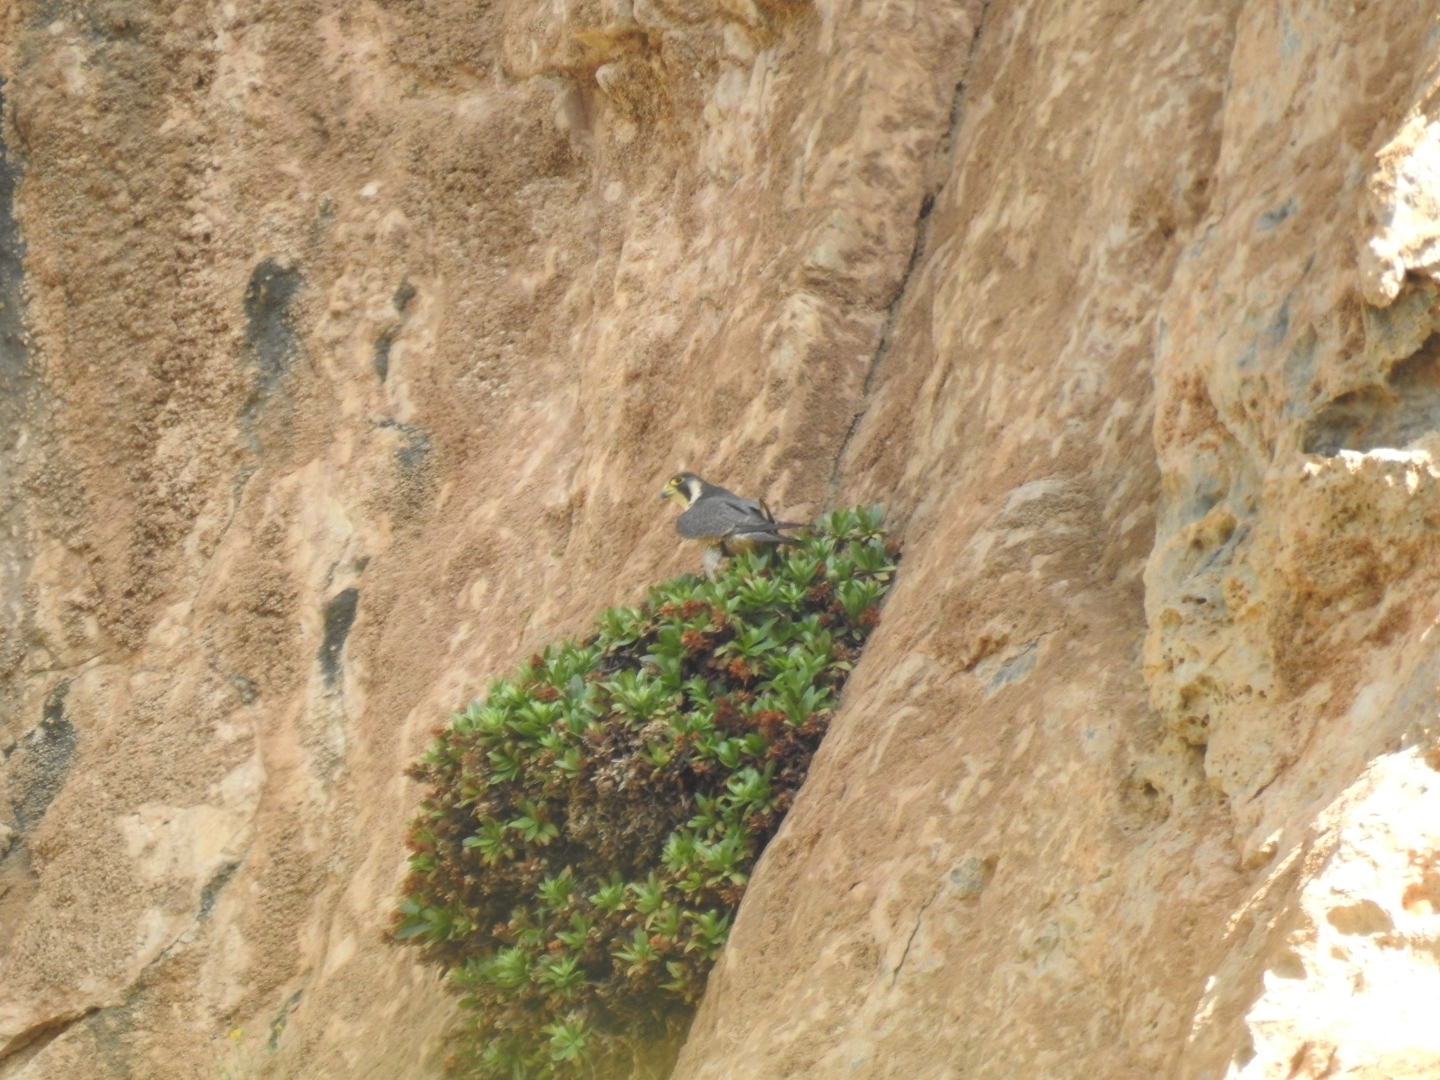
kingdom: Animalia
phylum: Chordata
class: Aves
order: Falconiformes
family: Falconidae
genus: Falco
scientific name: Falco peregrinus
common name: Peregrine falcon
